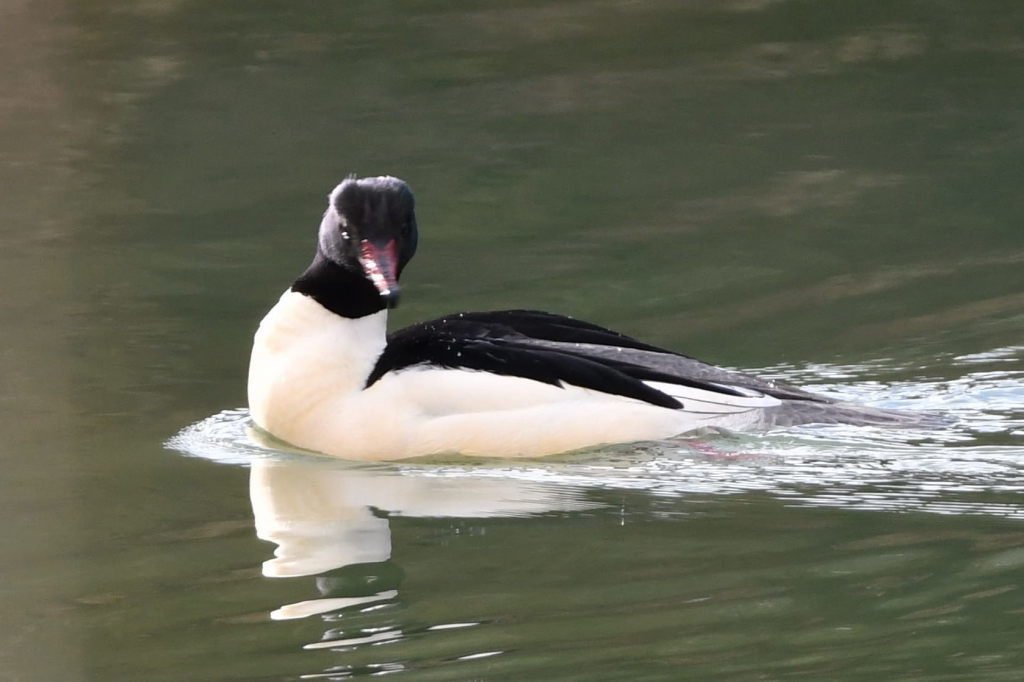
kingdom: Animalia
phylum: Chordata
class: Aves
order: Anseriformes
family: Anatidae
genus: Mergus
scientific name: Mergus merganser
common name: Common merganser
